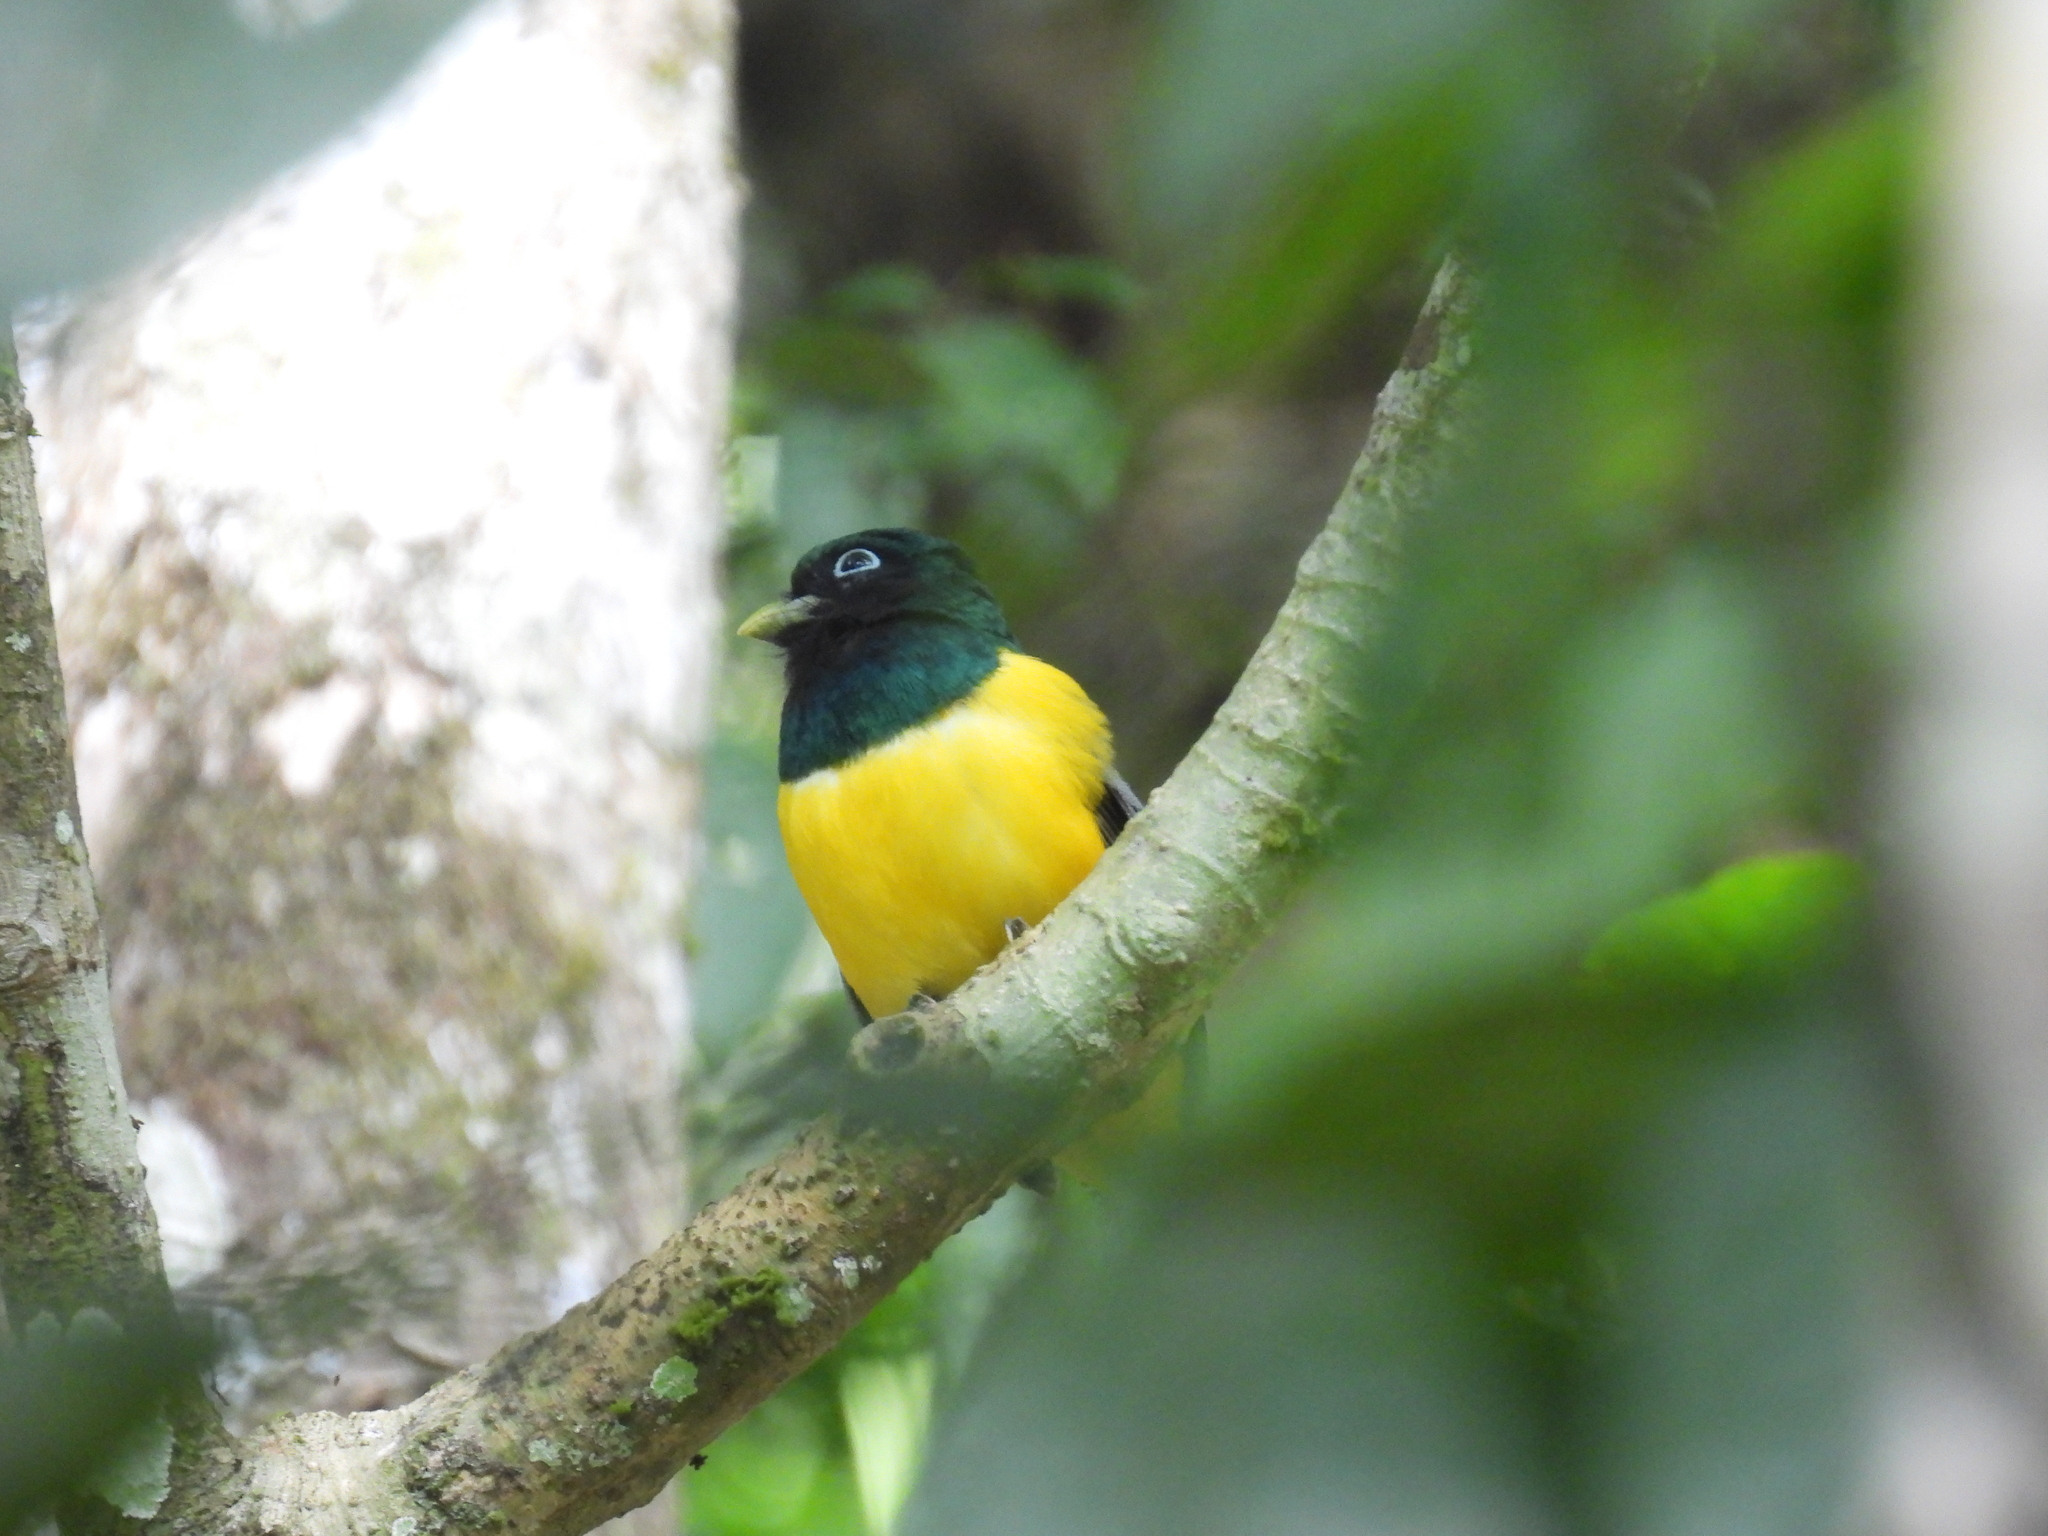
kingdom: Animalia
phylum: Chordata
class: Aves
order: Trogoniformes
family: Trogonidae
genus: Trogon
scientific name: Trogon rufus
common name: Black-throated trogon
